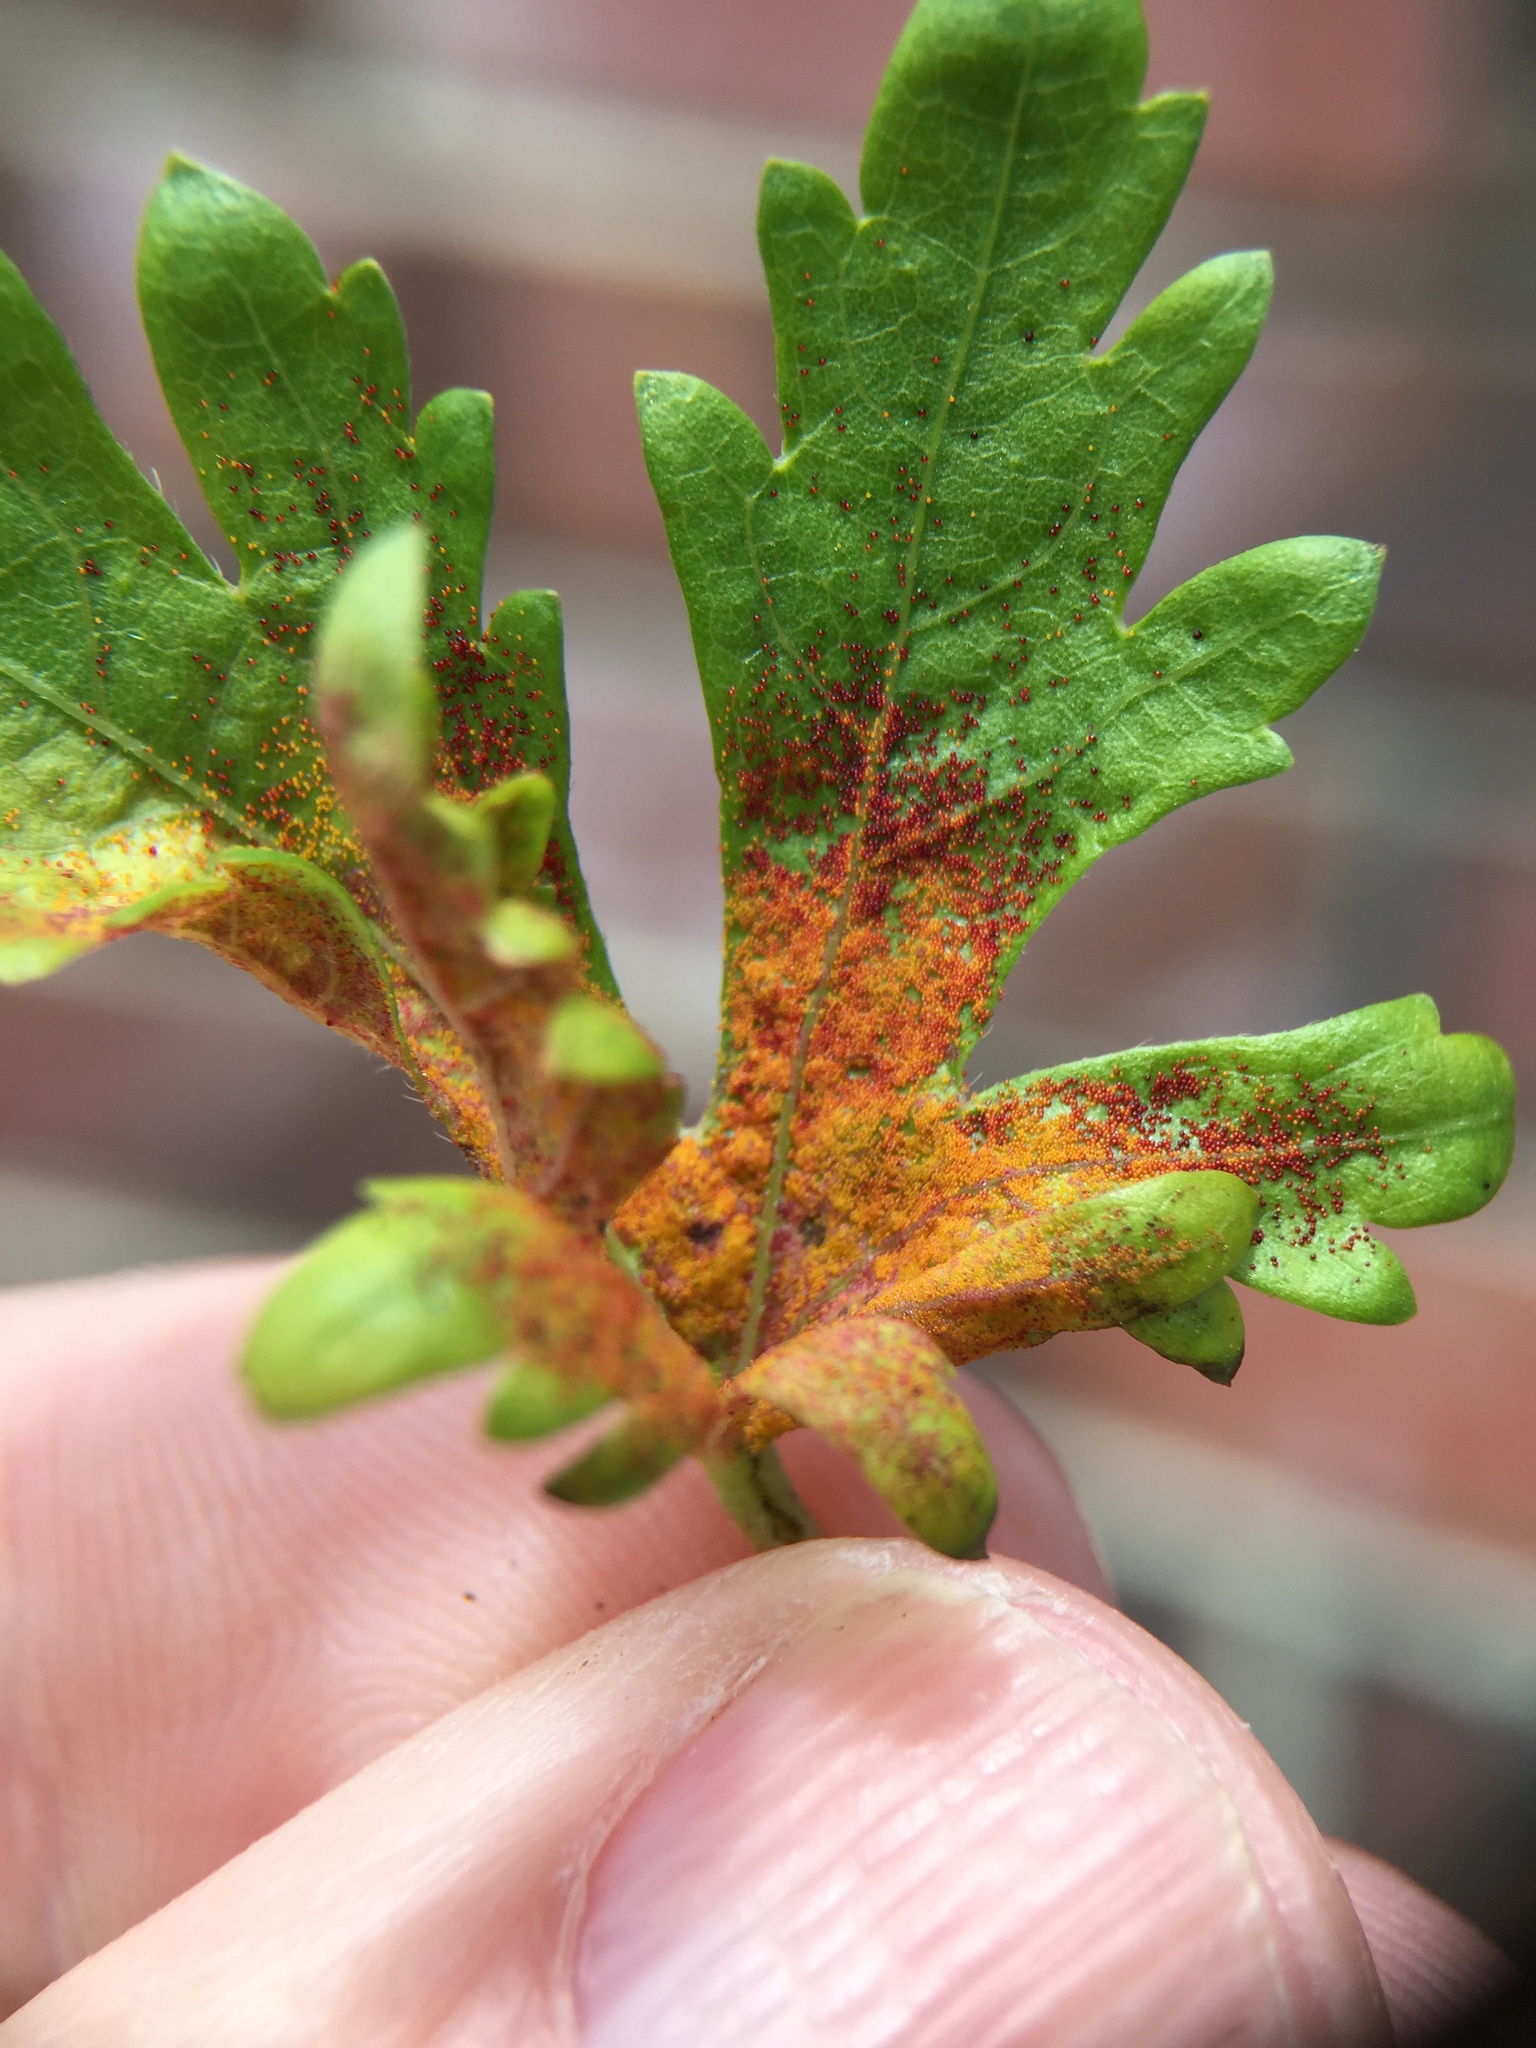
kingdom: Fungi
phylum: Chytridiomycota
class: Chytridiomycetes
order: Chytridiales
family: Synchytriaceae
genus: Synchytrium
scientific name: Synchytrium australe
